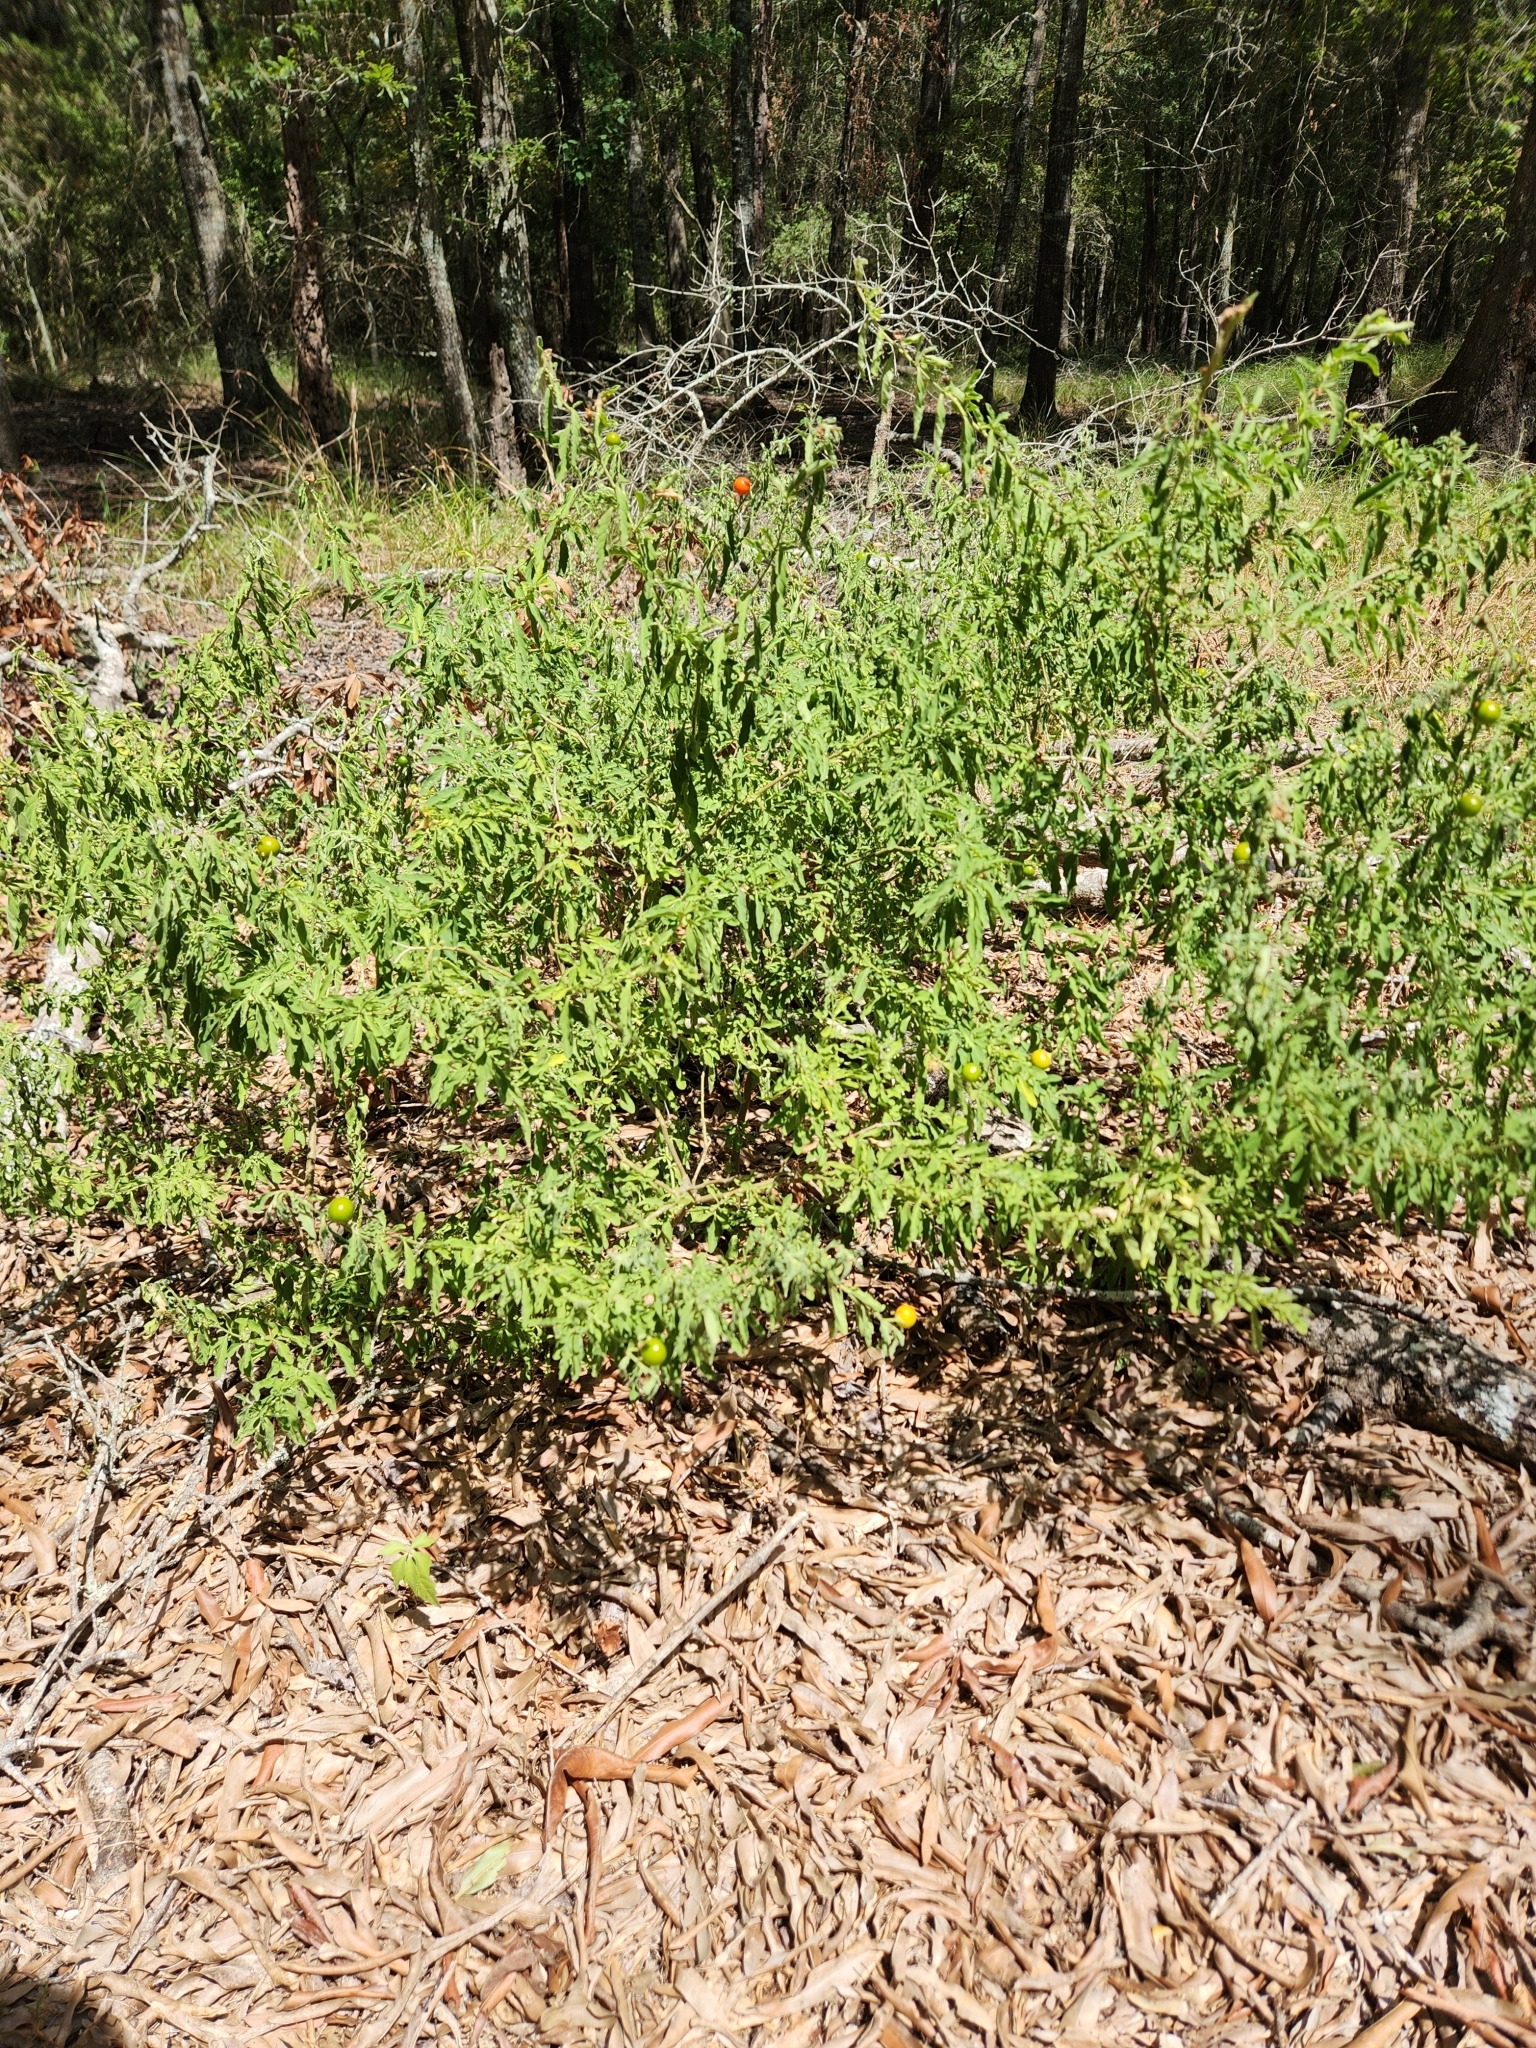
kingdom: Plantae
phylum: Tracheophyta
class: Magnoliopsida
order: Solanales
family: Solanaceae
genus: Solanum
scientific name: Solanum pseudocapsicum
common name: Jerusalem cherry
